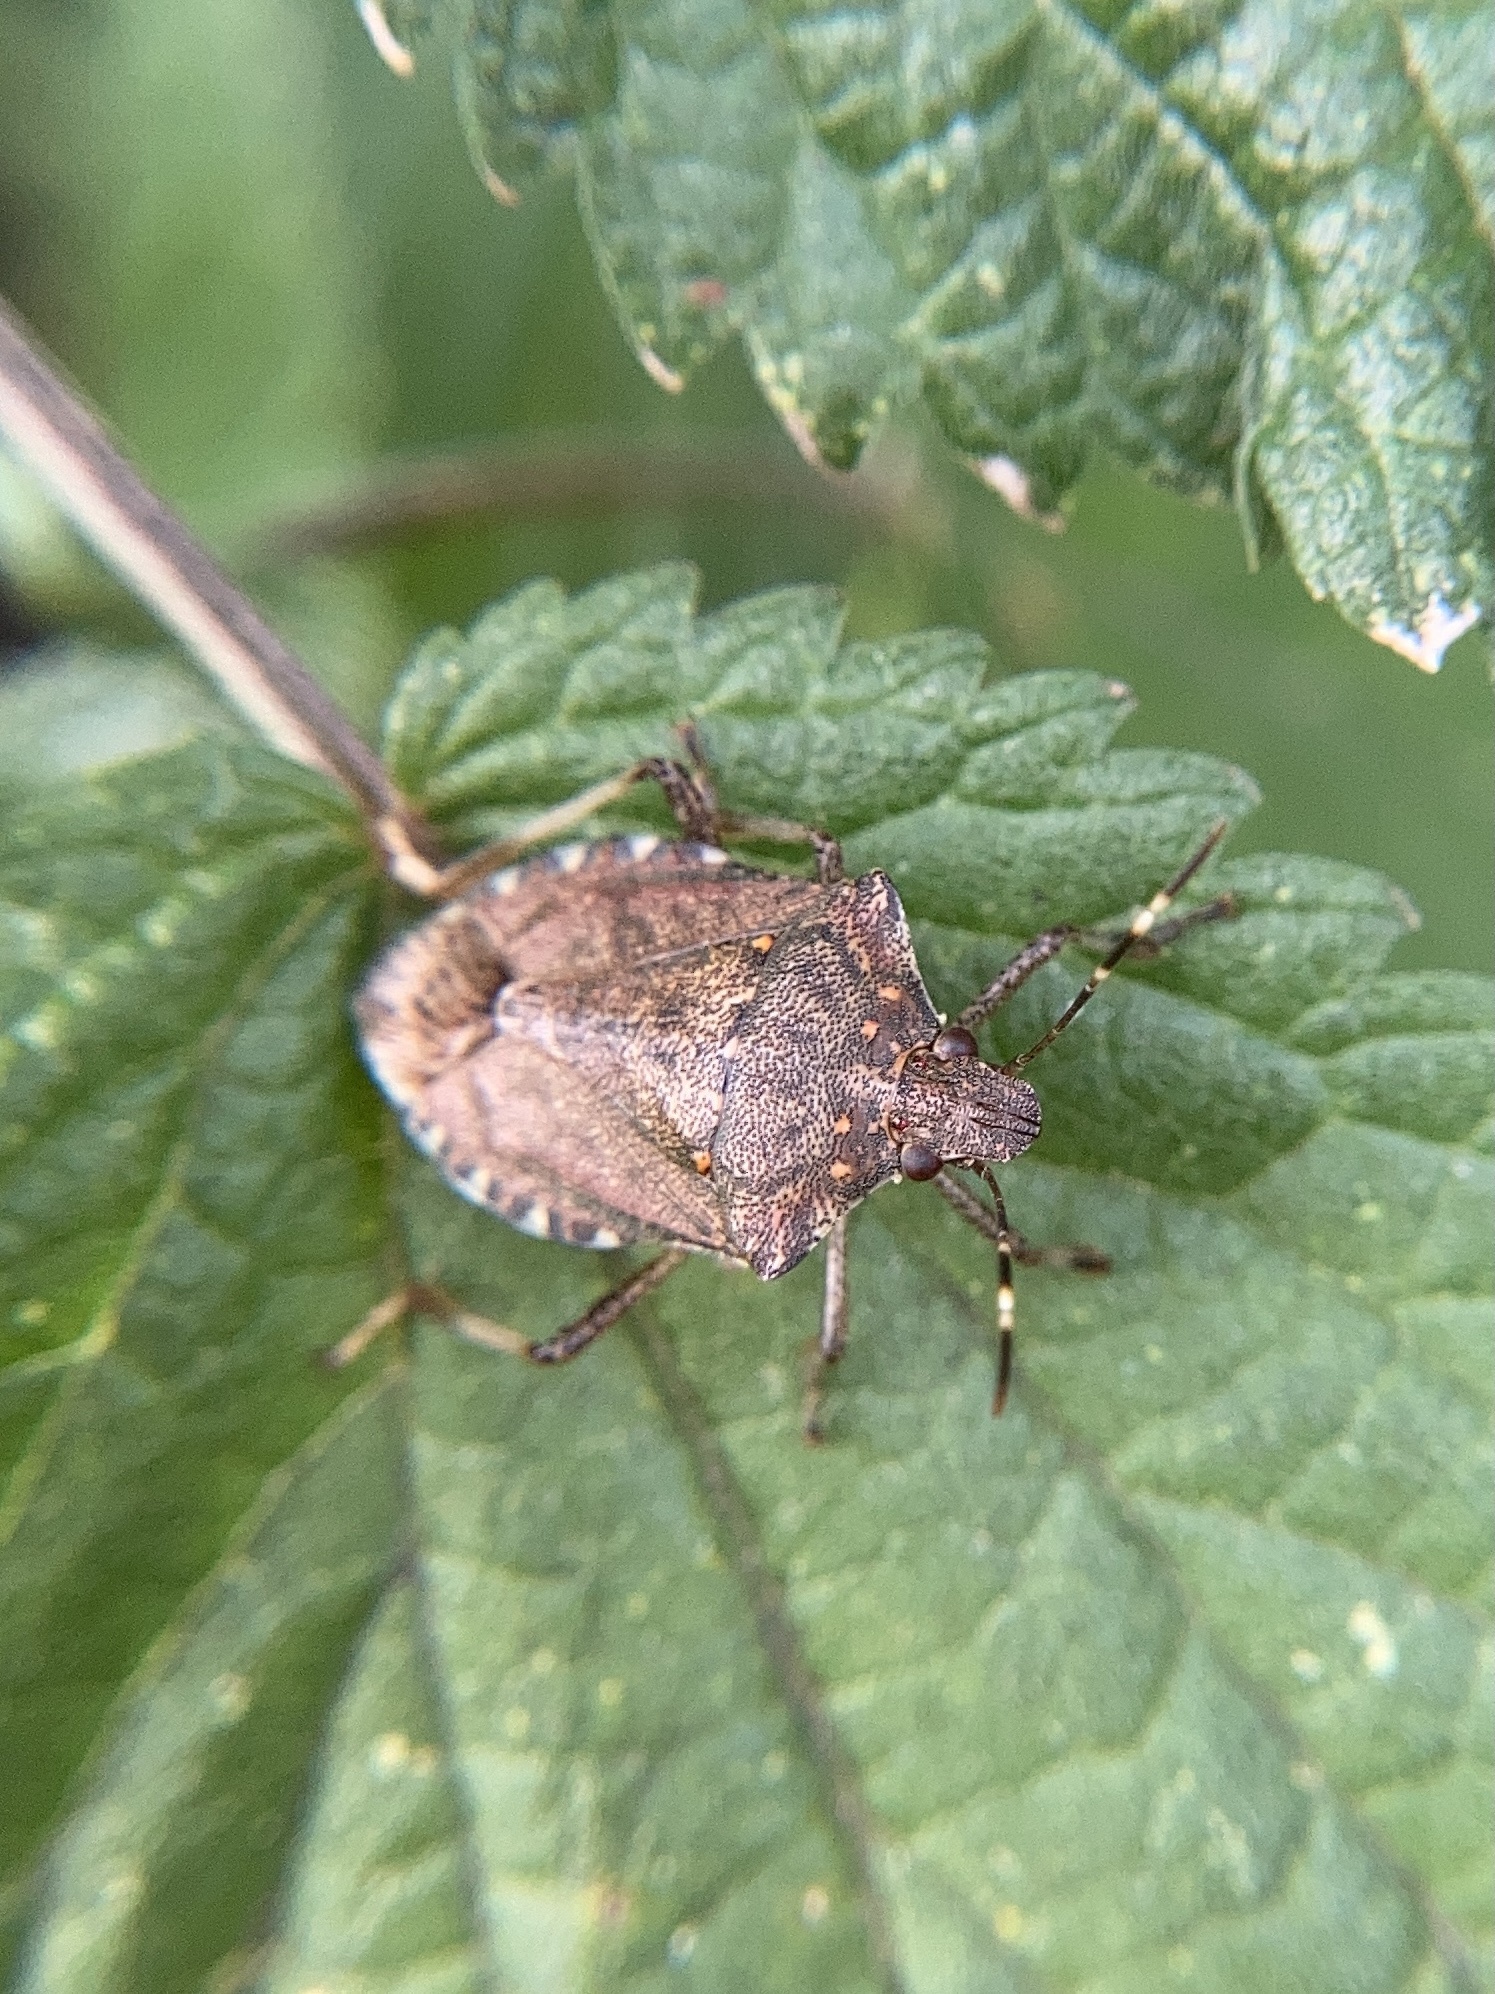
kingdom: Animalia
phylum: Arthropoda
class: Insecta
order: Hemiptera
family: Pentatomidae
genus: Halyomorpha
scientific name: Halyomorpha halys
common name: Brown marmorated stink bug
